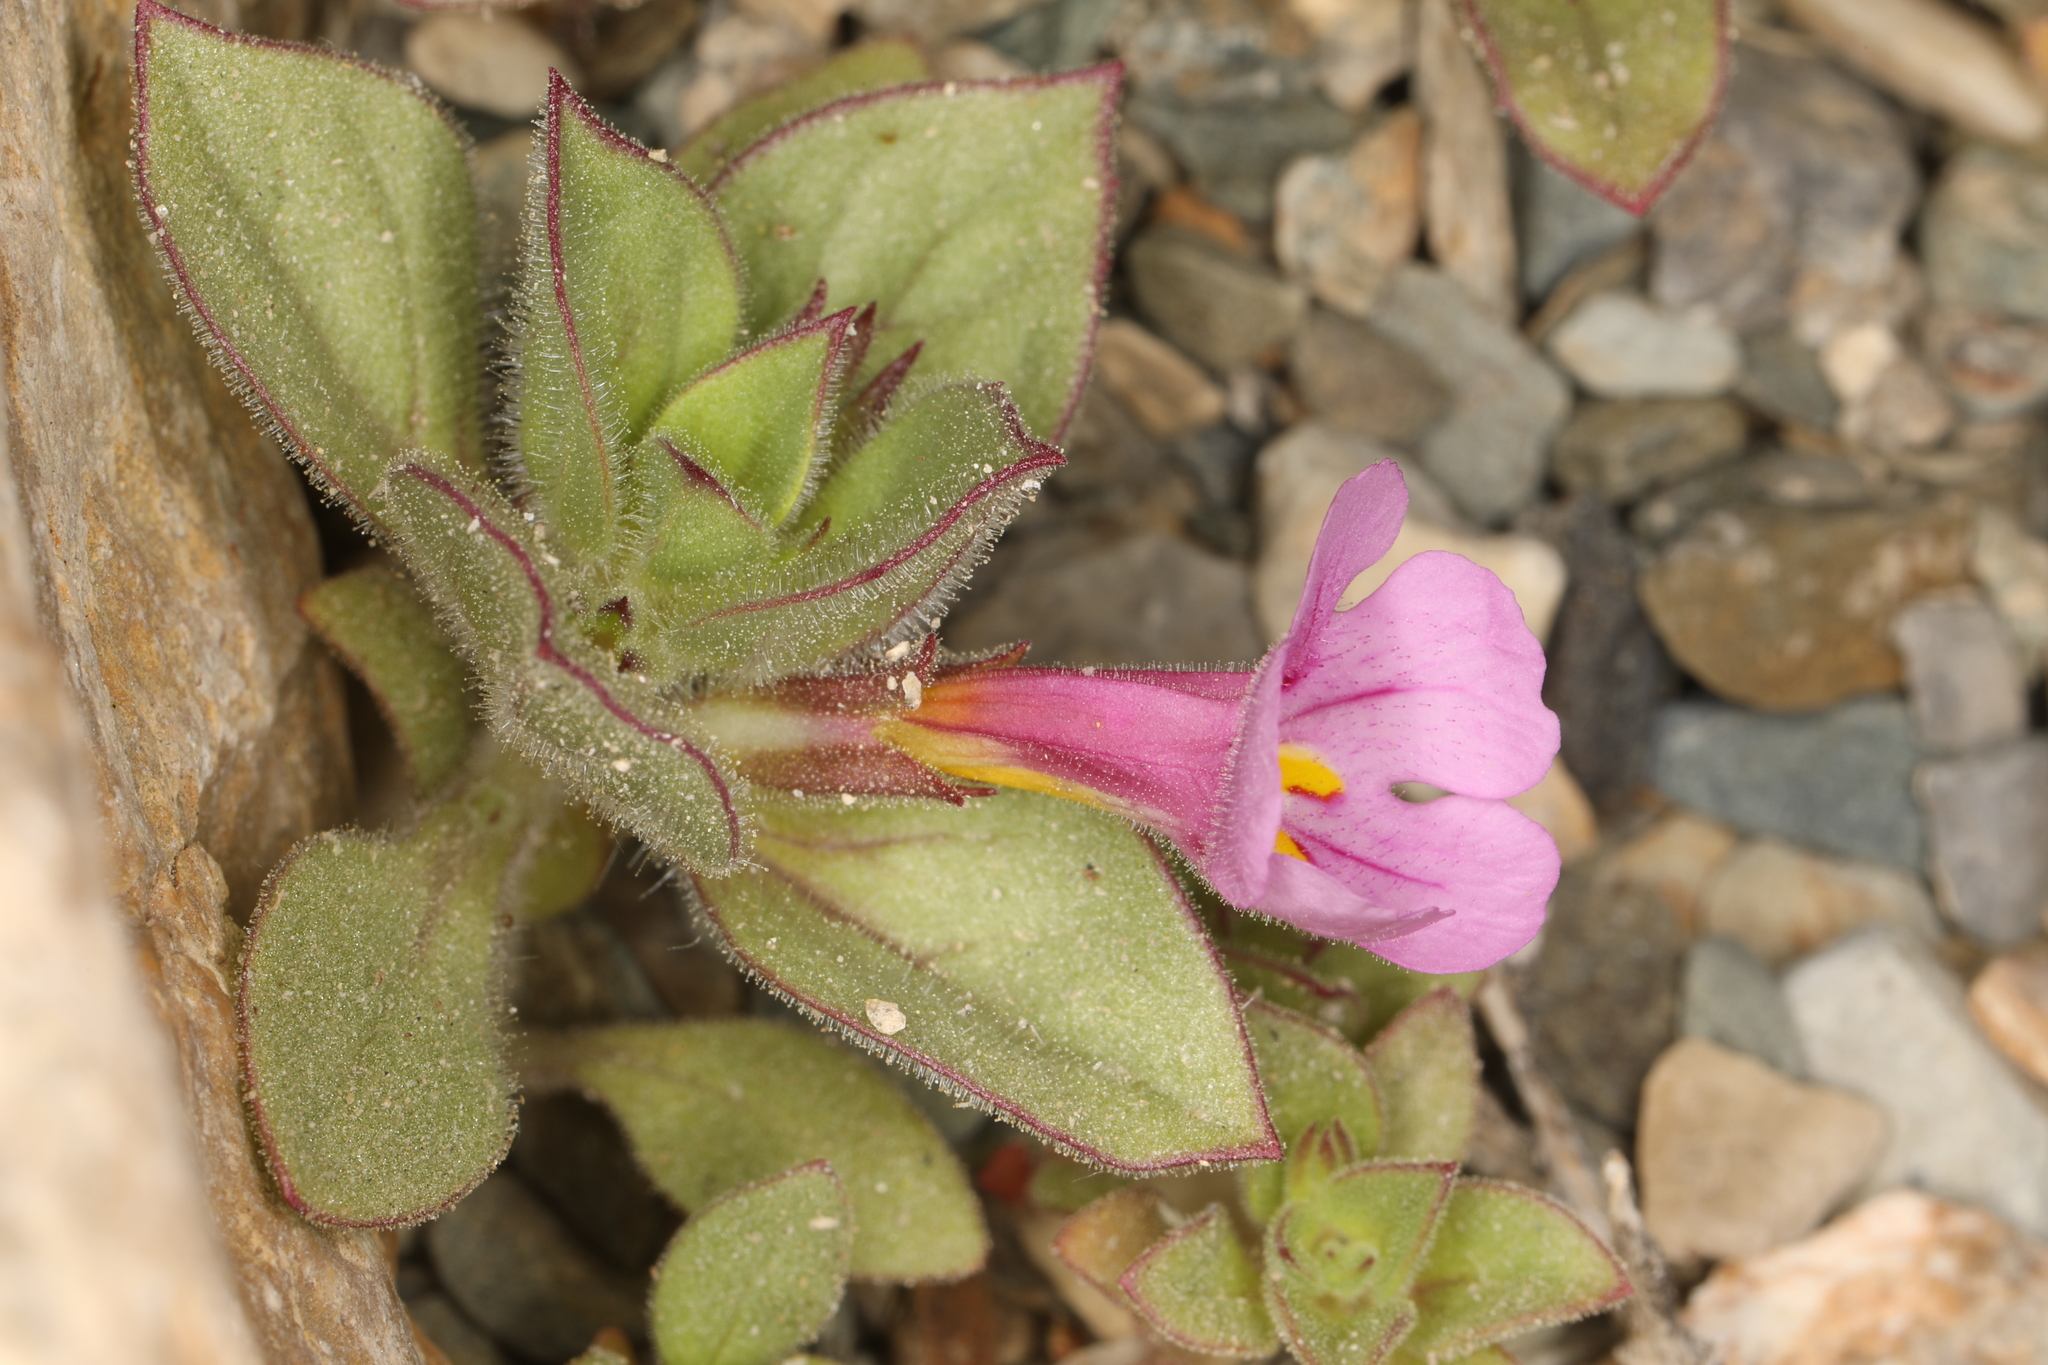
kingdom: Plantae
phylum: Tracheophyta
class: Magnoliopsida
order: Lamiales
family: Phrymaceae
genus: Diplacus
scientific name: Diplacus bigelovii
